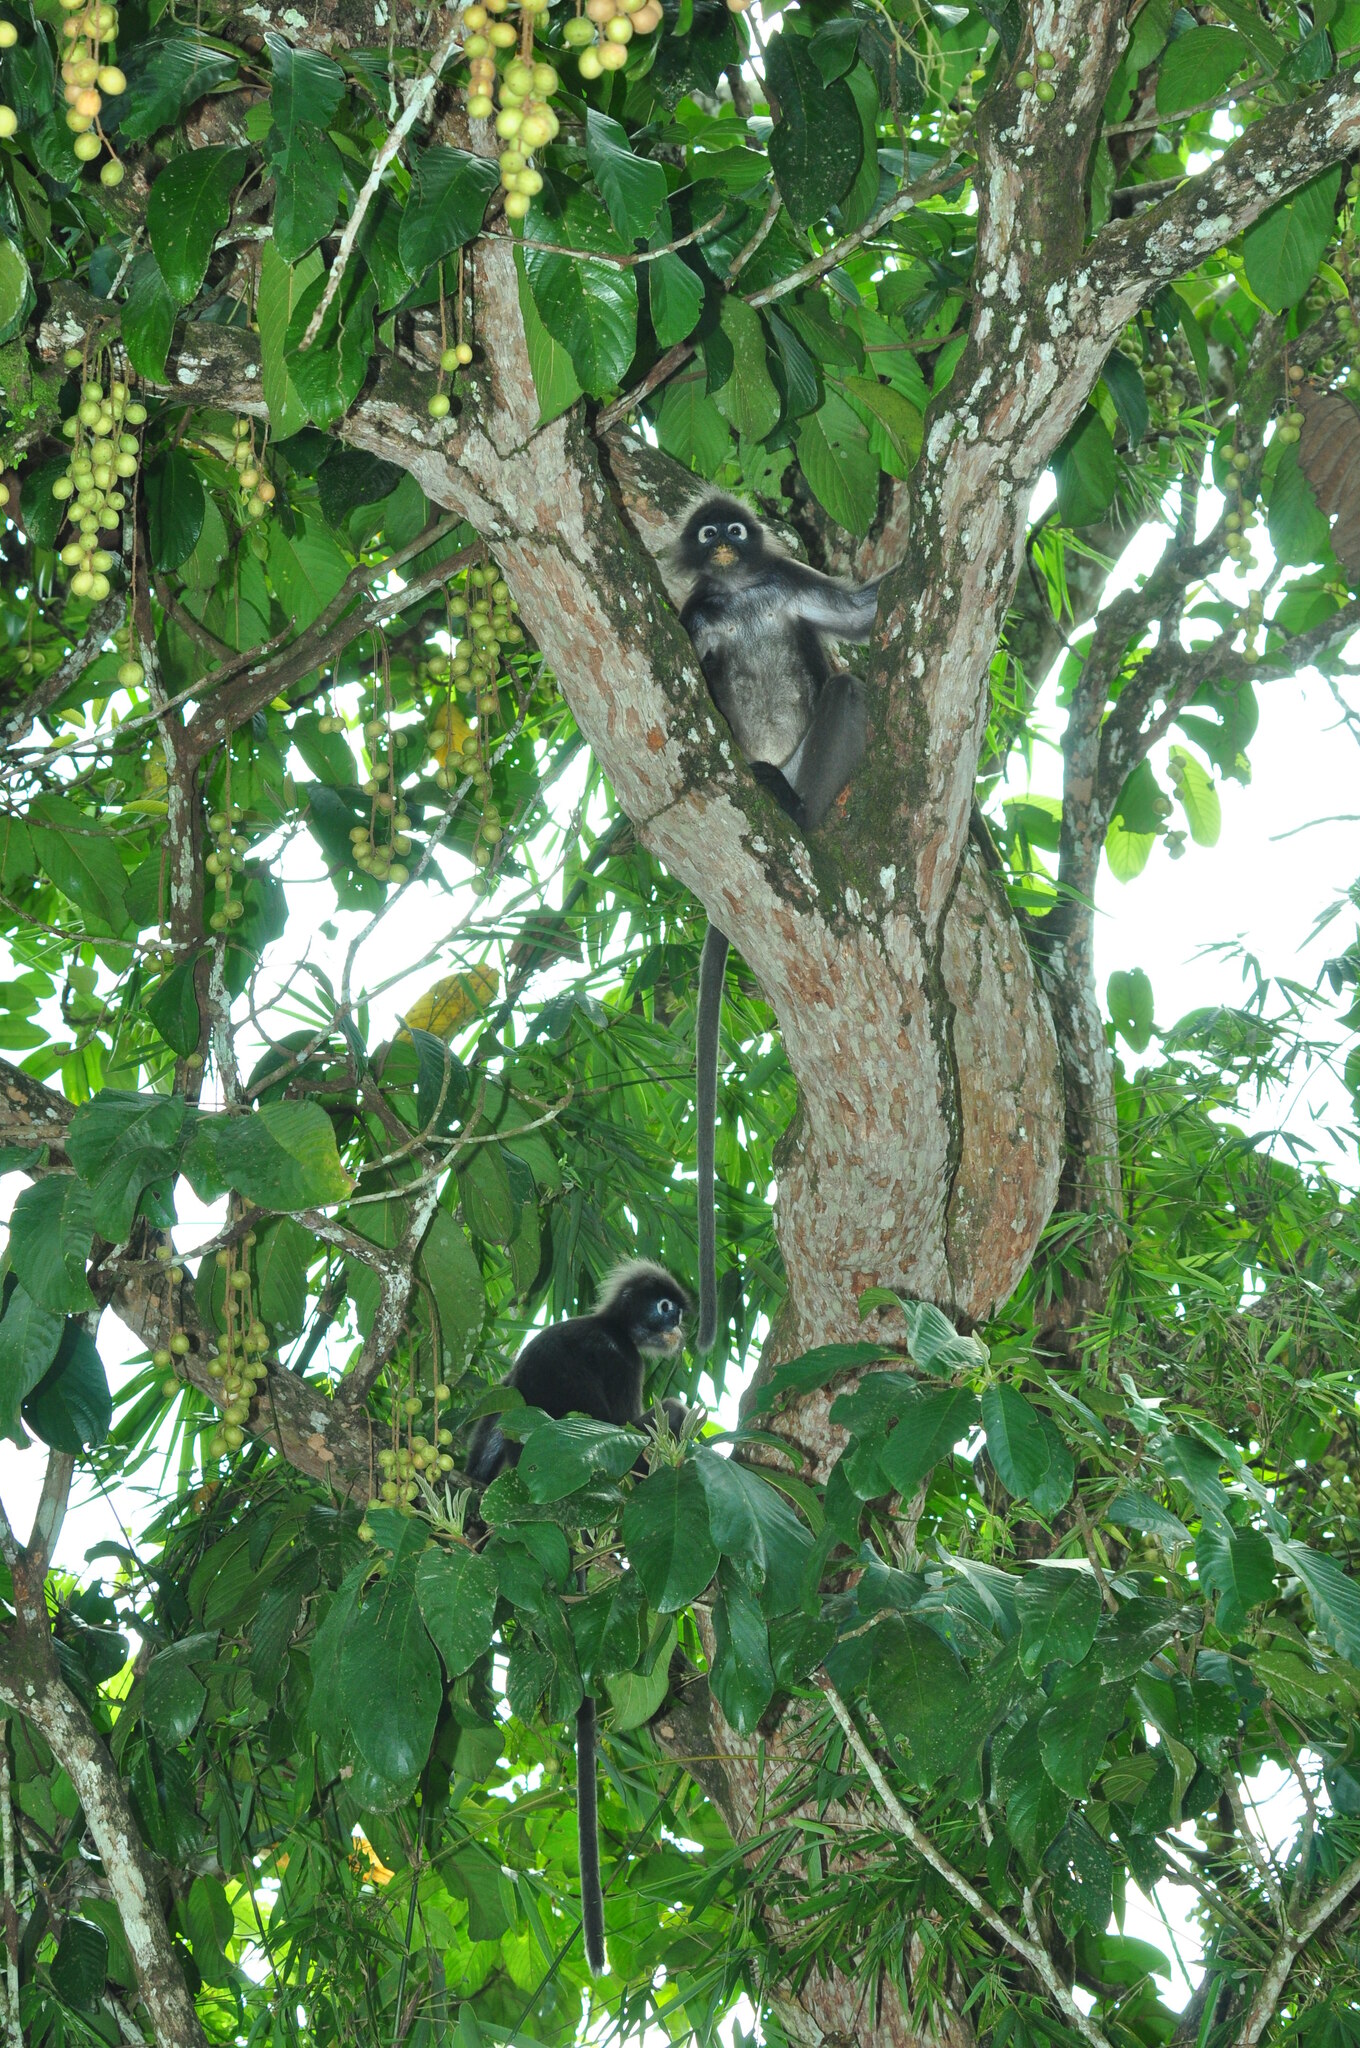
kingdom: Animalia
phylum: Chordata
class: Mammalia
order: Primates
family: Cercopithecidae
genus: Trachypithecus
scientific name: Trachypithecus obscurus
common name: Dusky leaf-monkey
